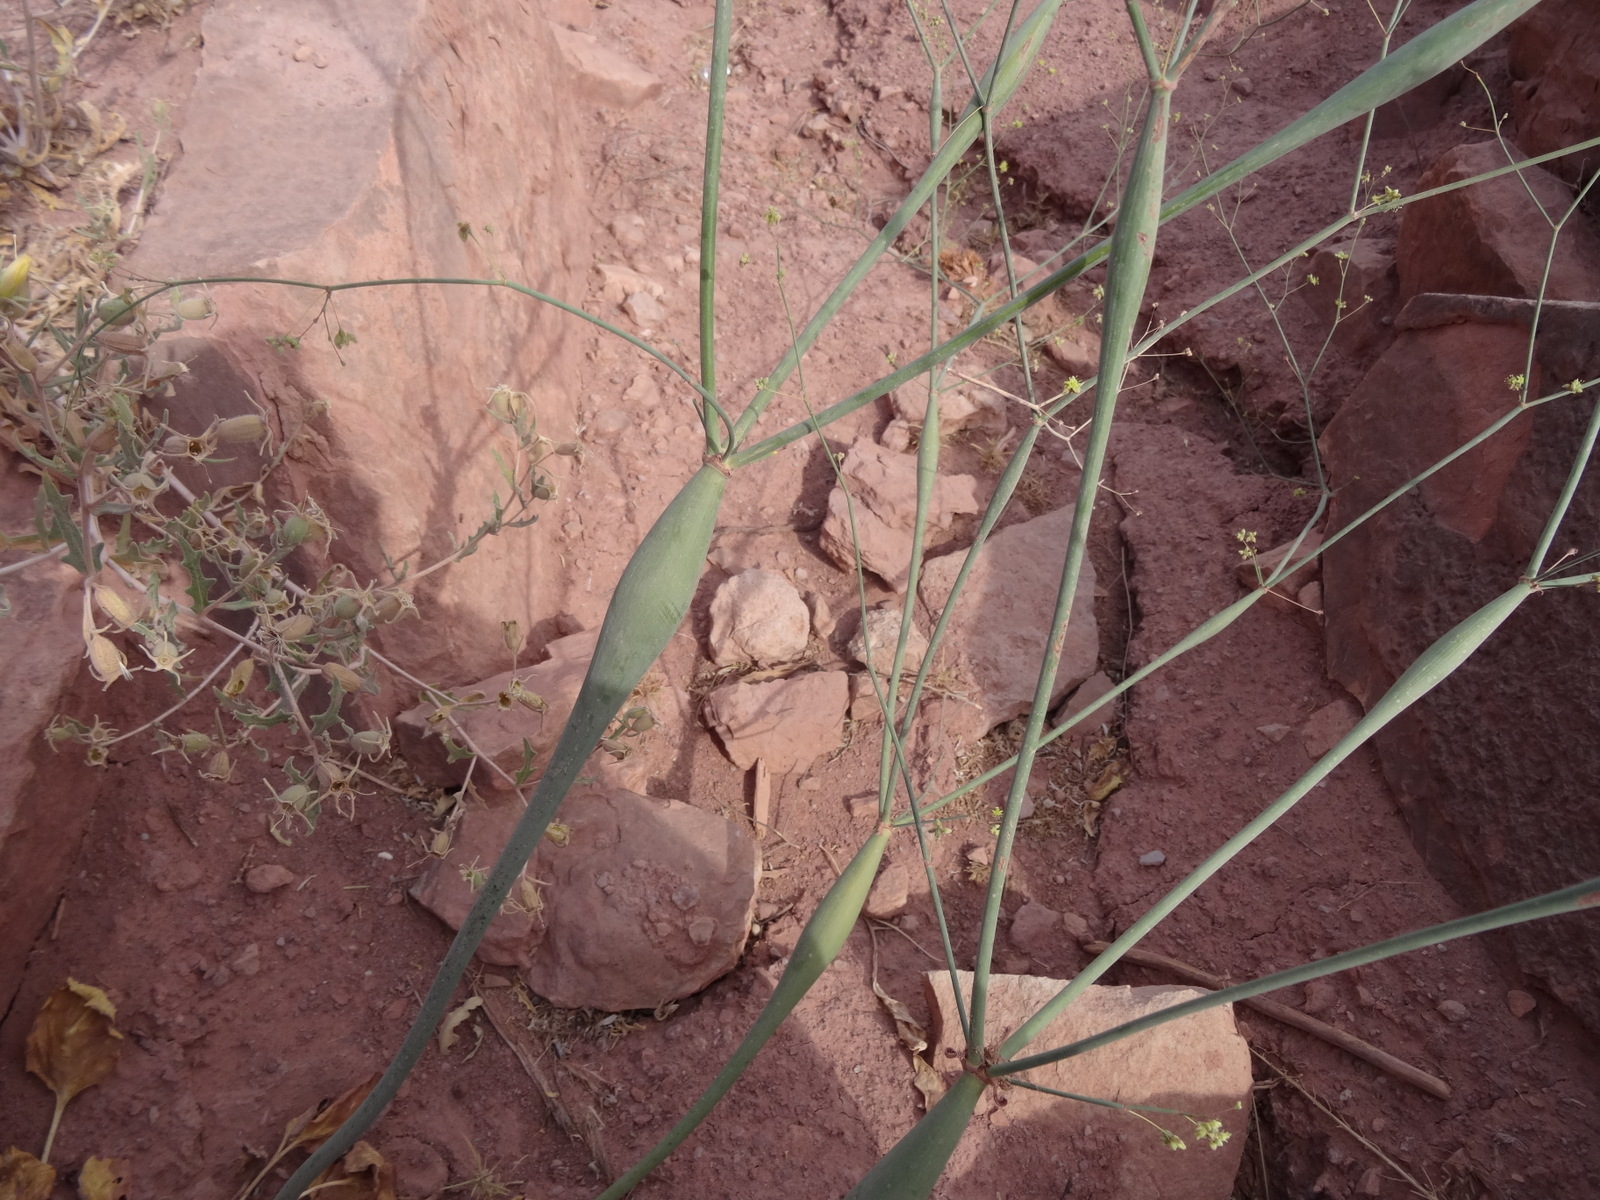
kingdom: Plantae
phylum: Tracheophyta
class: Magnoliopsida
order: Caryophyllales
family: Polygonaceae
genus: Eriogonum
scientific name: Eriogonum inflatum
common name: Desert trumpet
